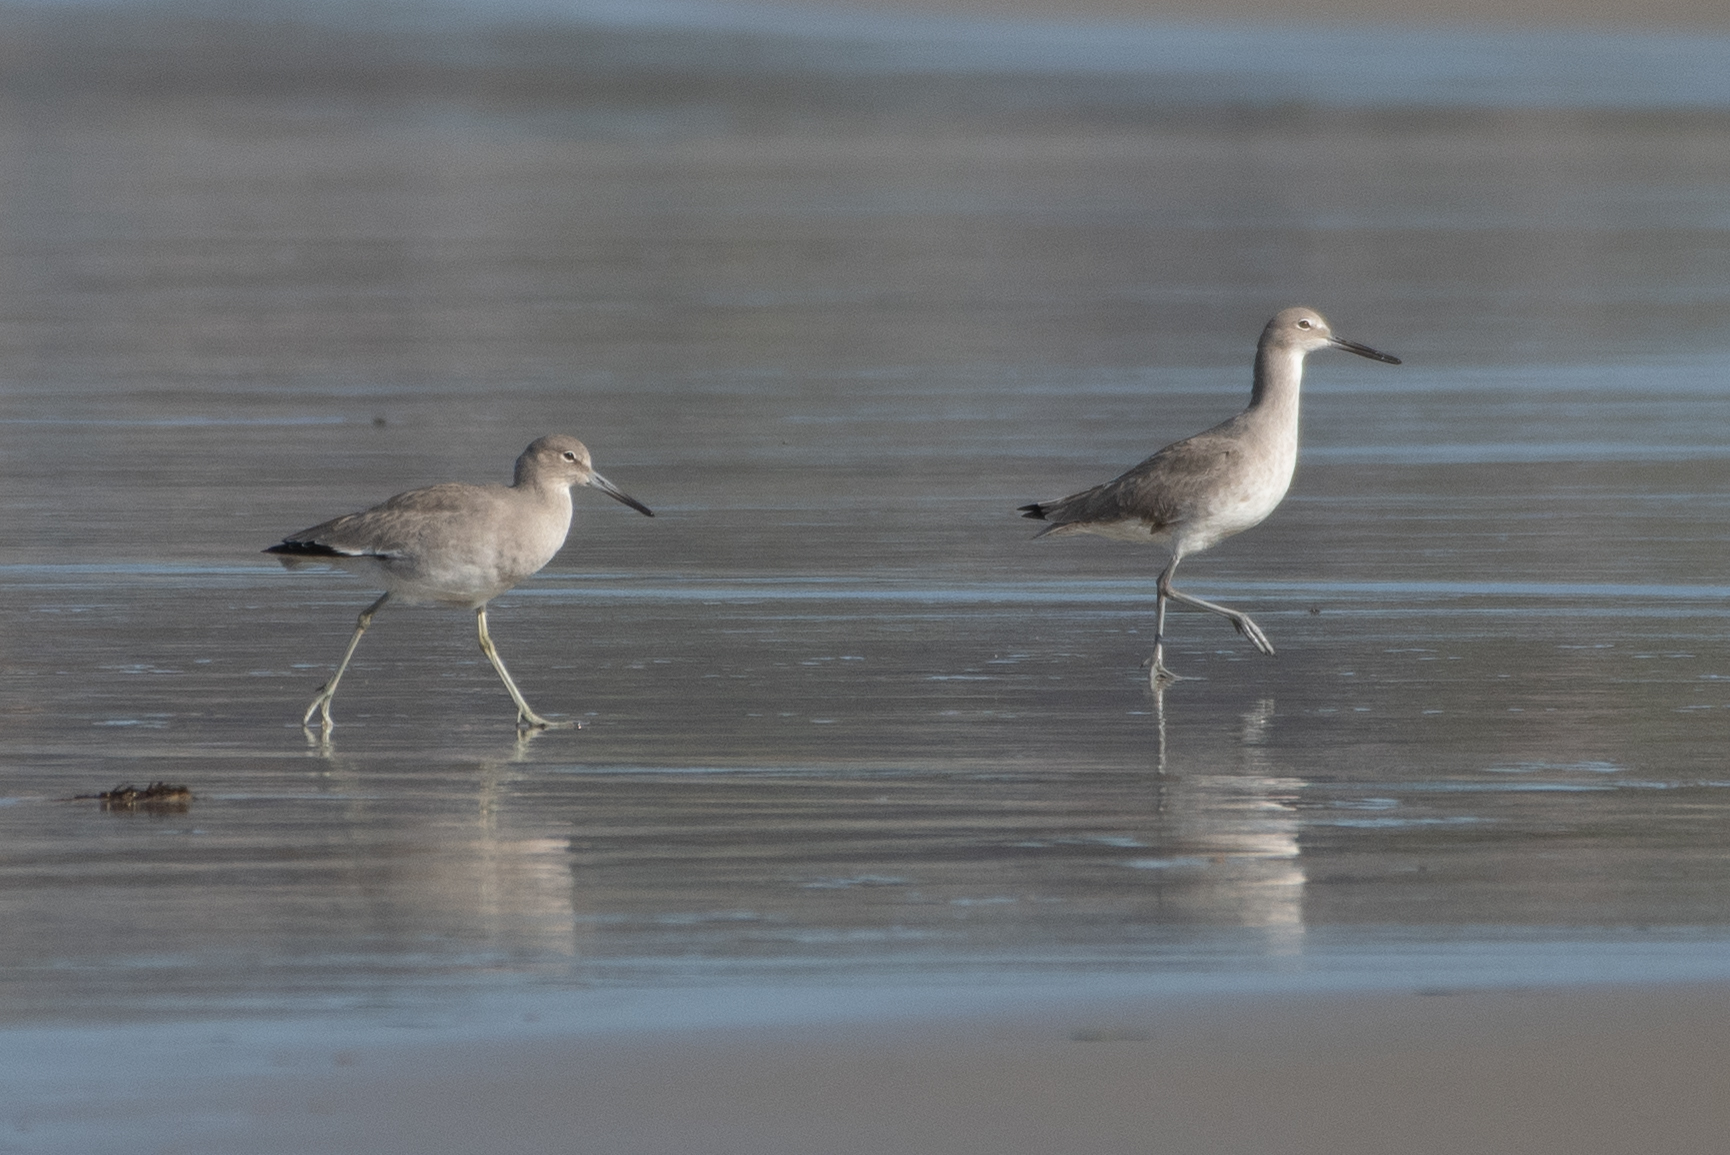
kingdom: Animalia
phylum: Chordata
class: Aves
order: Charadriiformes
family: Scolopacidae
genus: Tringa
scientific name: Tringa semipalmata
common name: Willet
